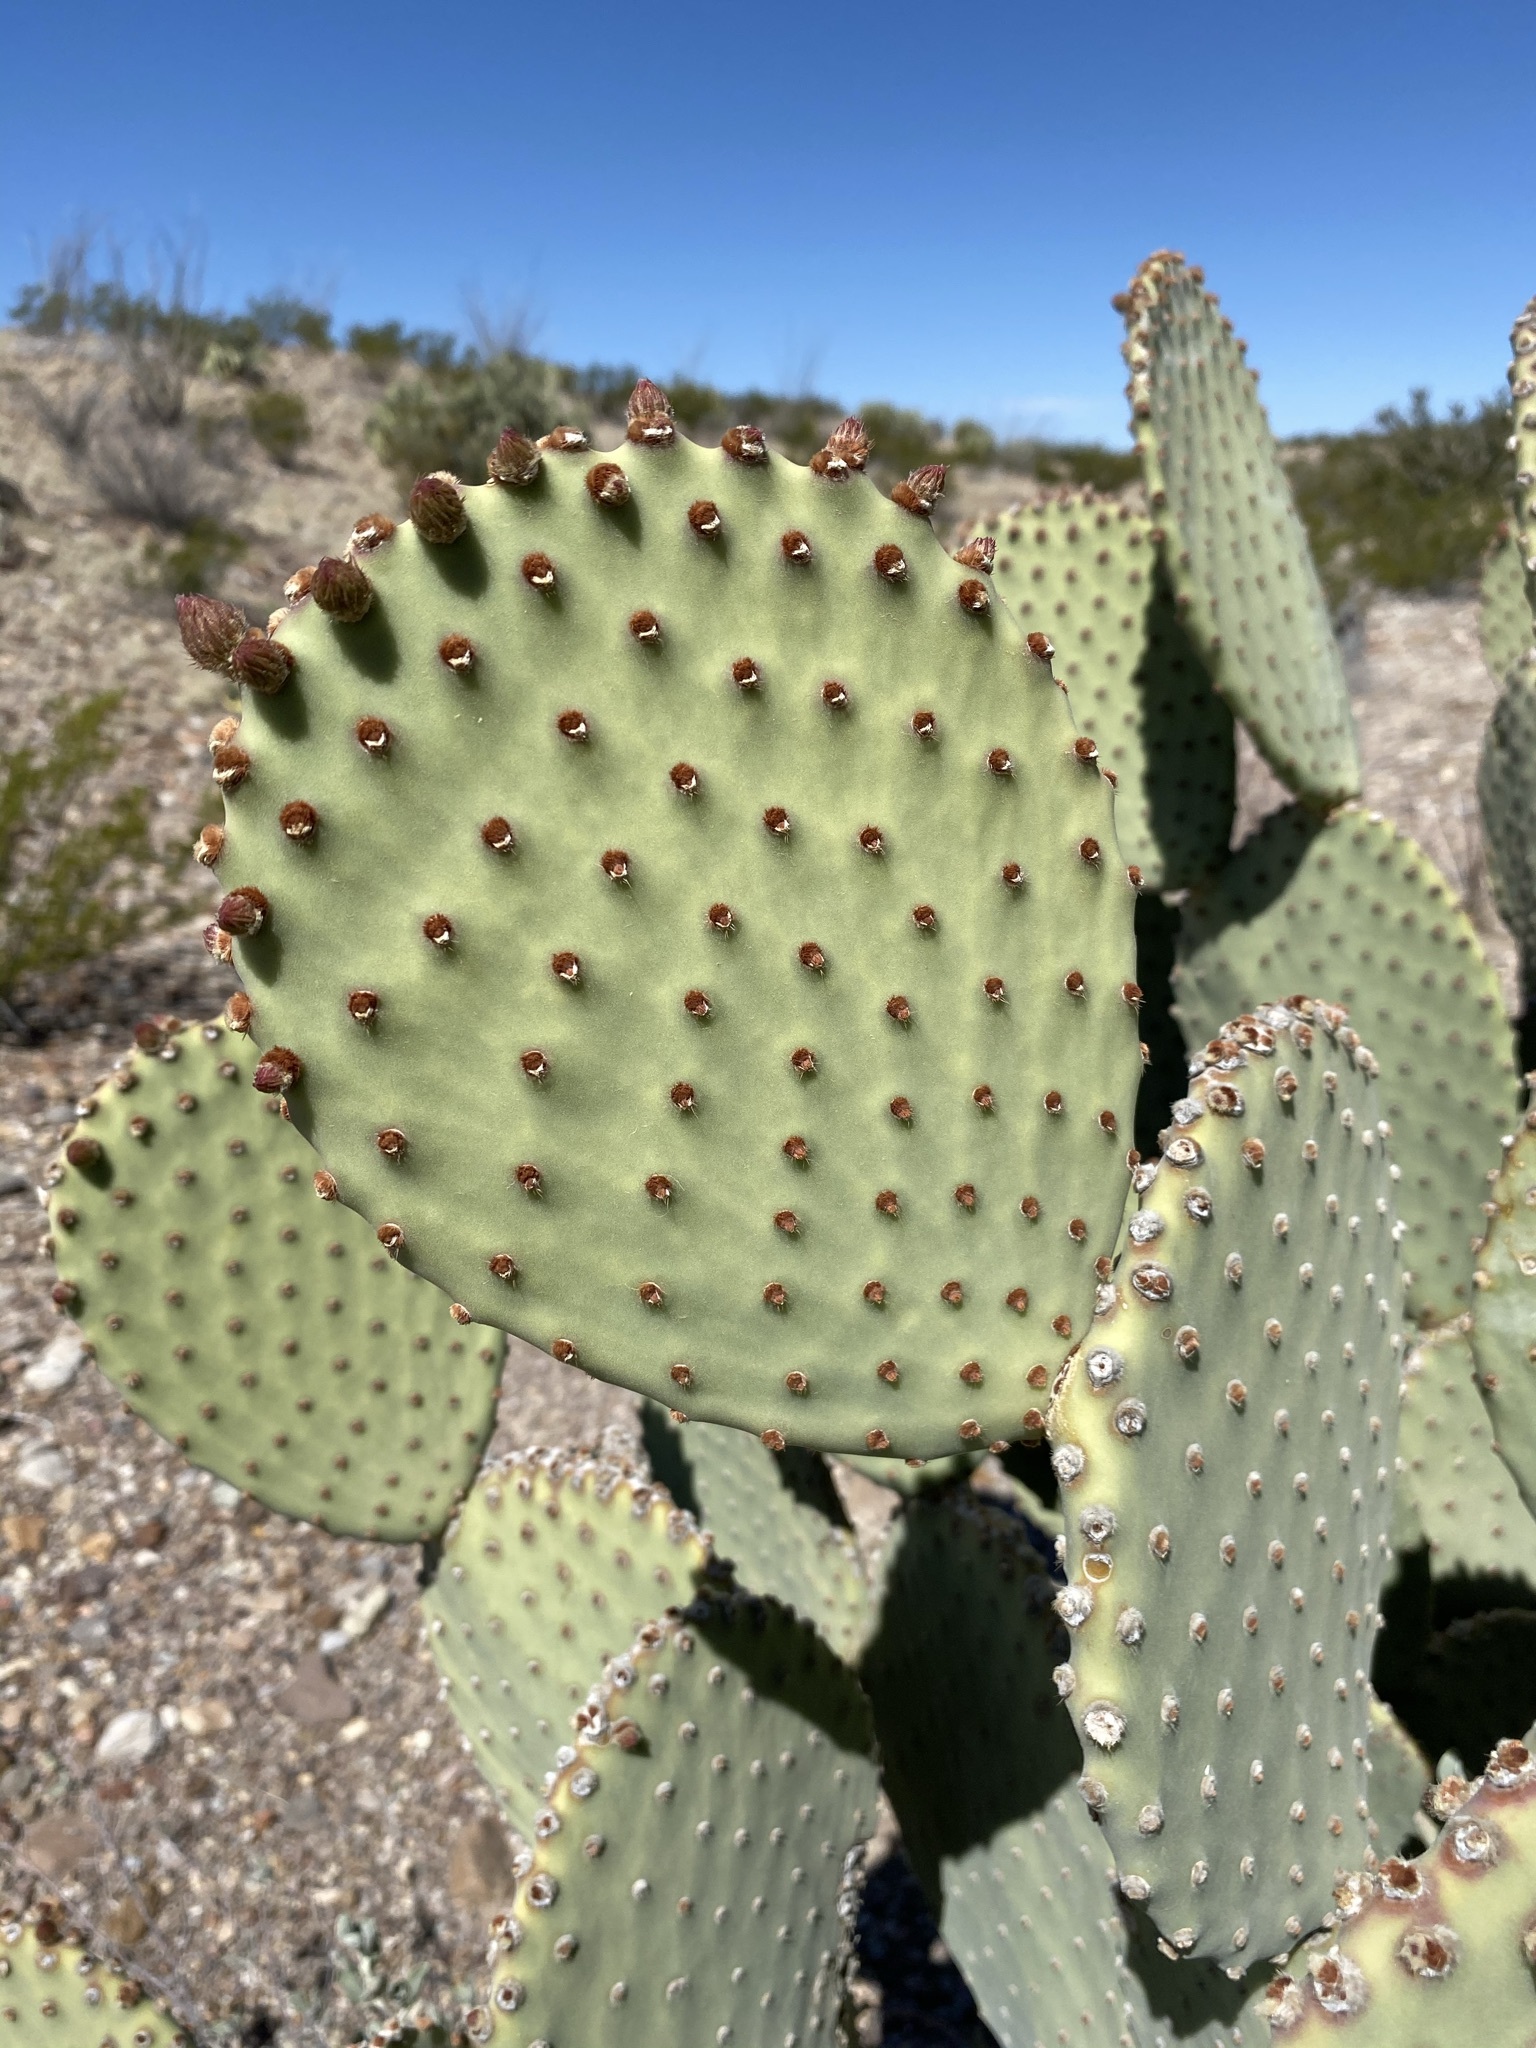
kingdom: Plantae
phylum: Tracheophyta
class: Magnoliopsida
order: Caryophyllales
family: Cactaceae
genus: Opuntia
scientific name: Opuntia rufida
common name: Blind pricklypear
